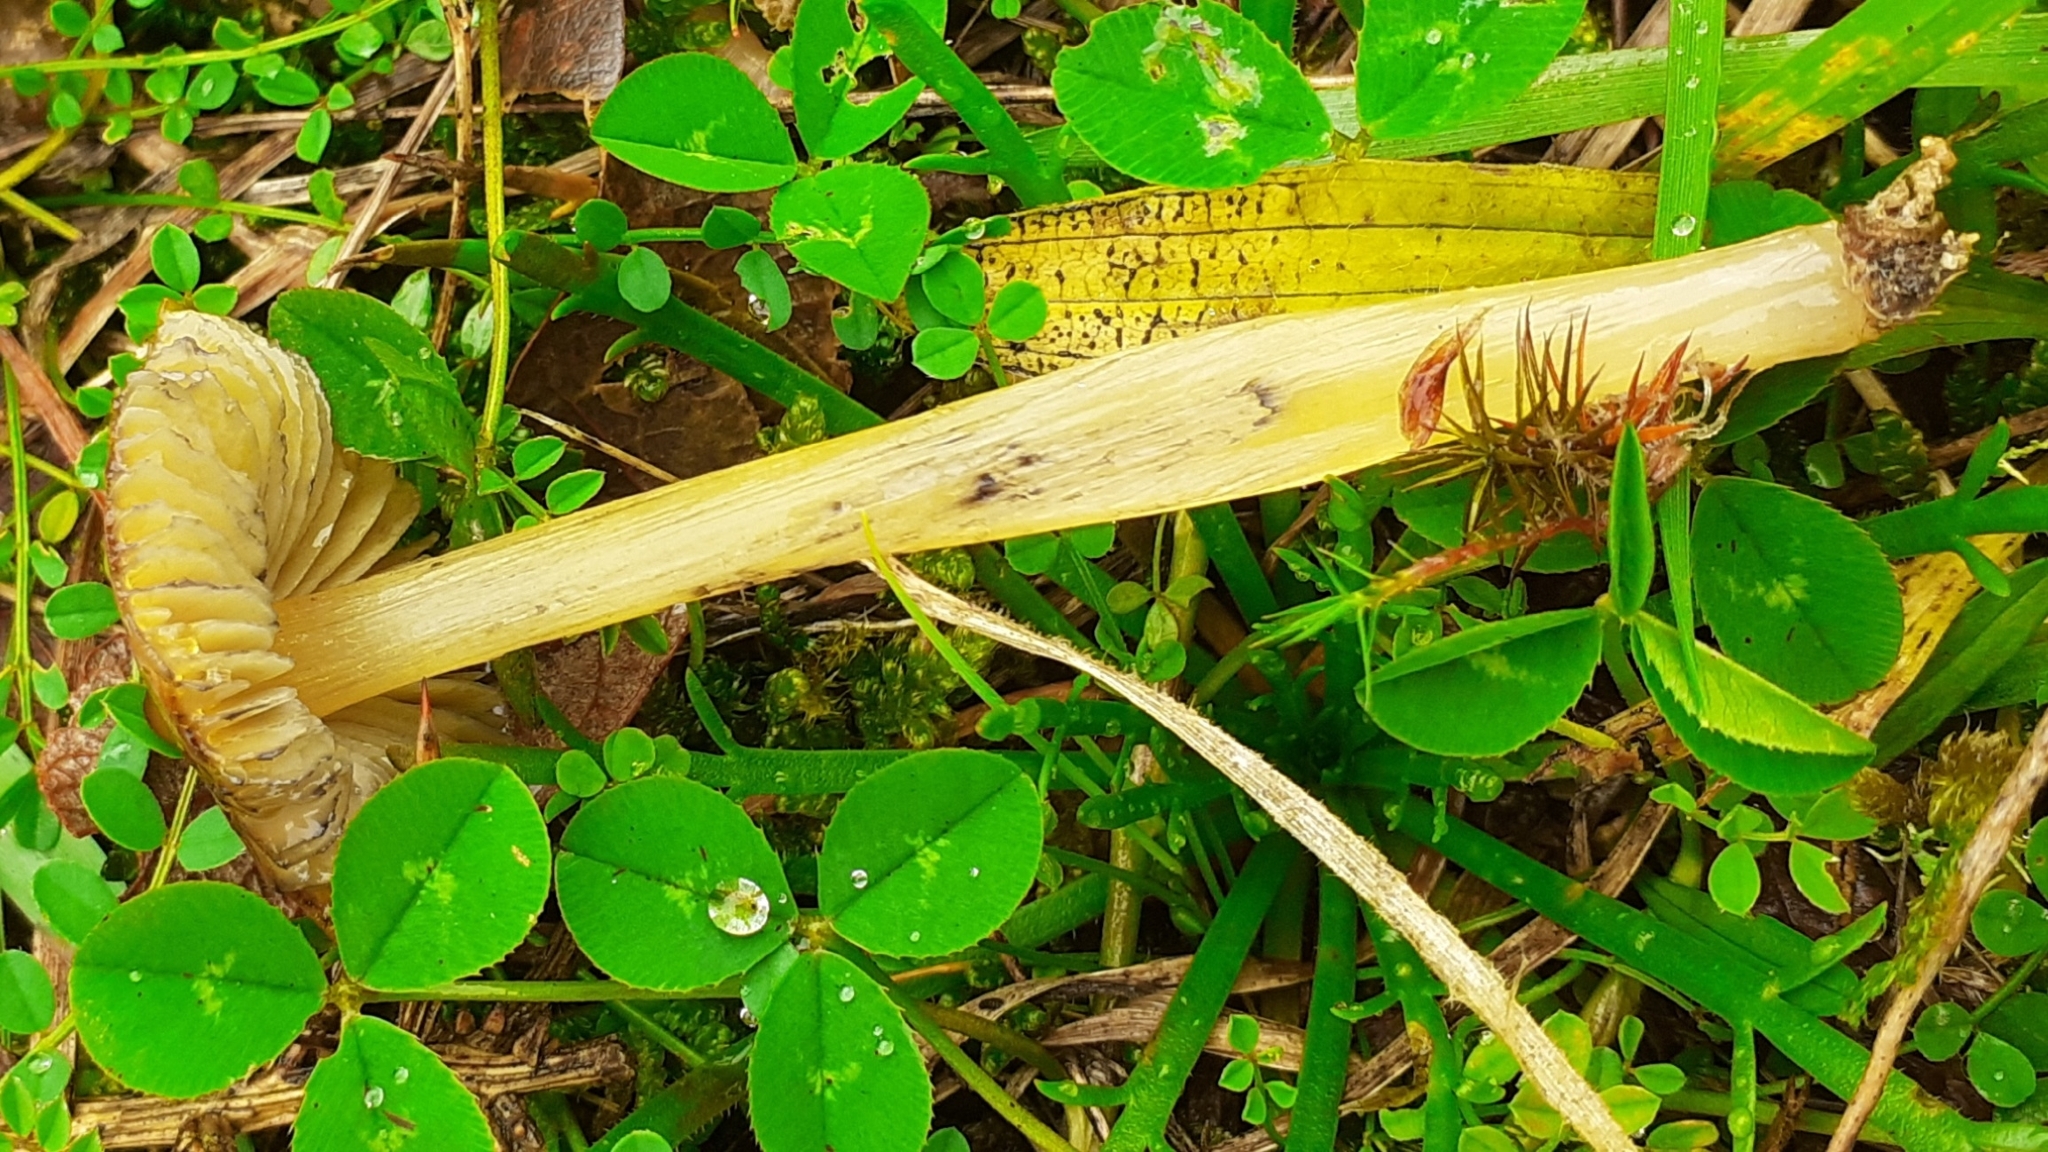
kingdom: Fungi
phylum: Basidiomycota
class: Agaricomycetes
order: Agaricales
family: Hygrophoraceae
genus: Hygrocybe
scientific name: Hygrocybe conica
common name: Blackening wax-cap
